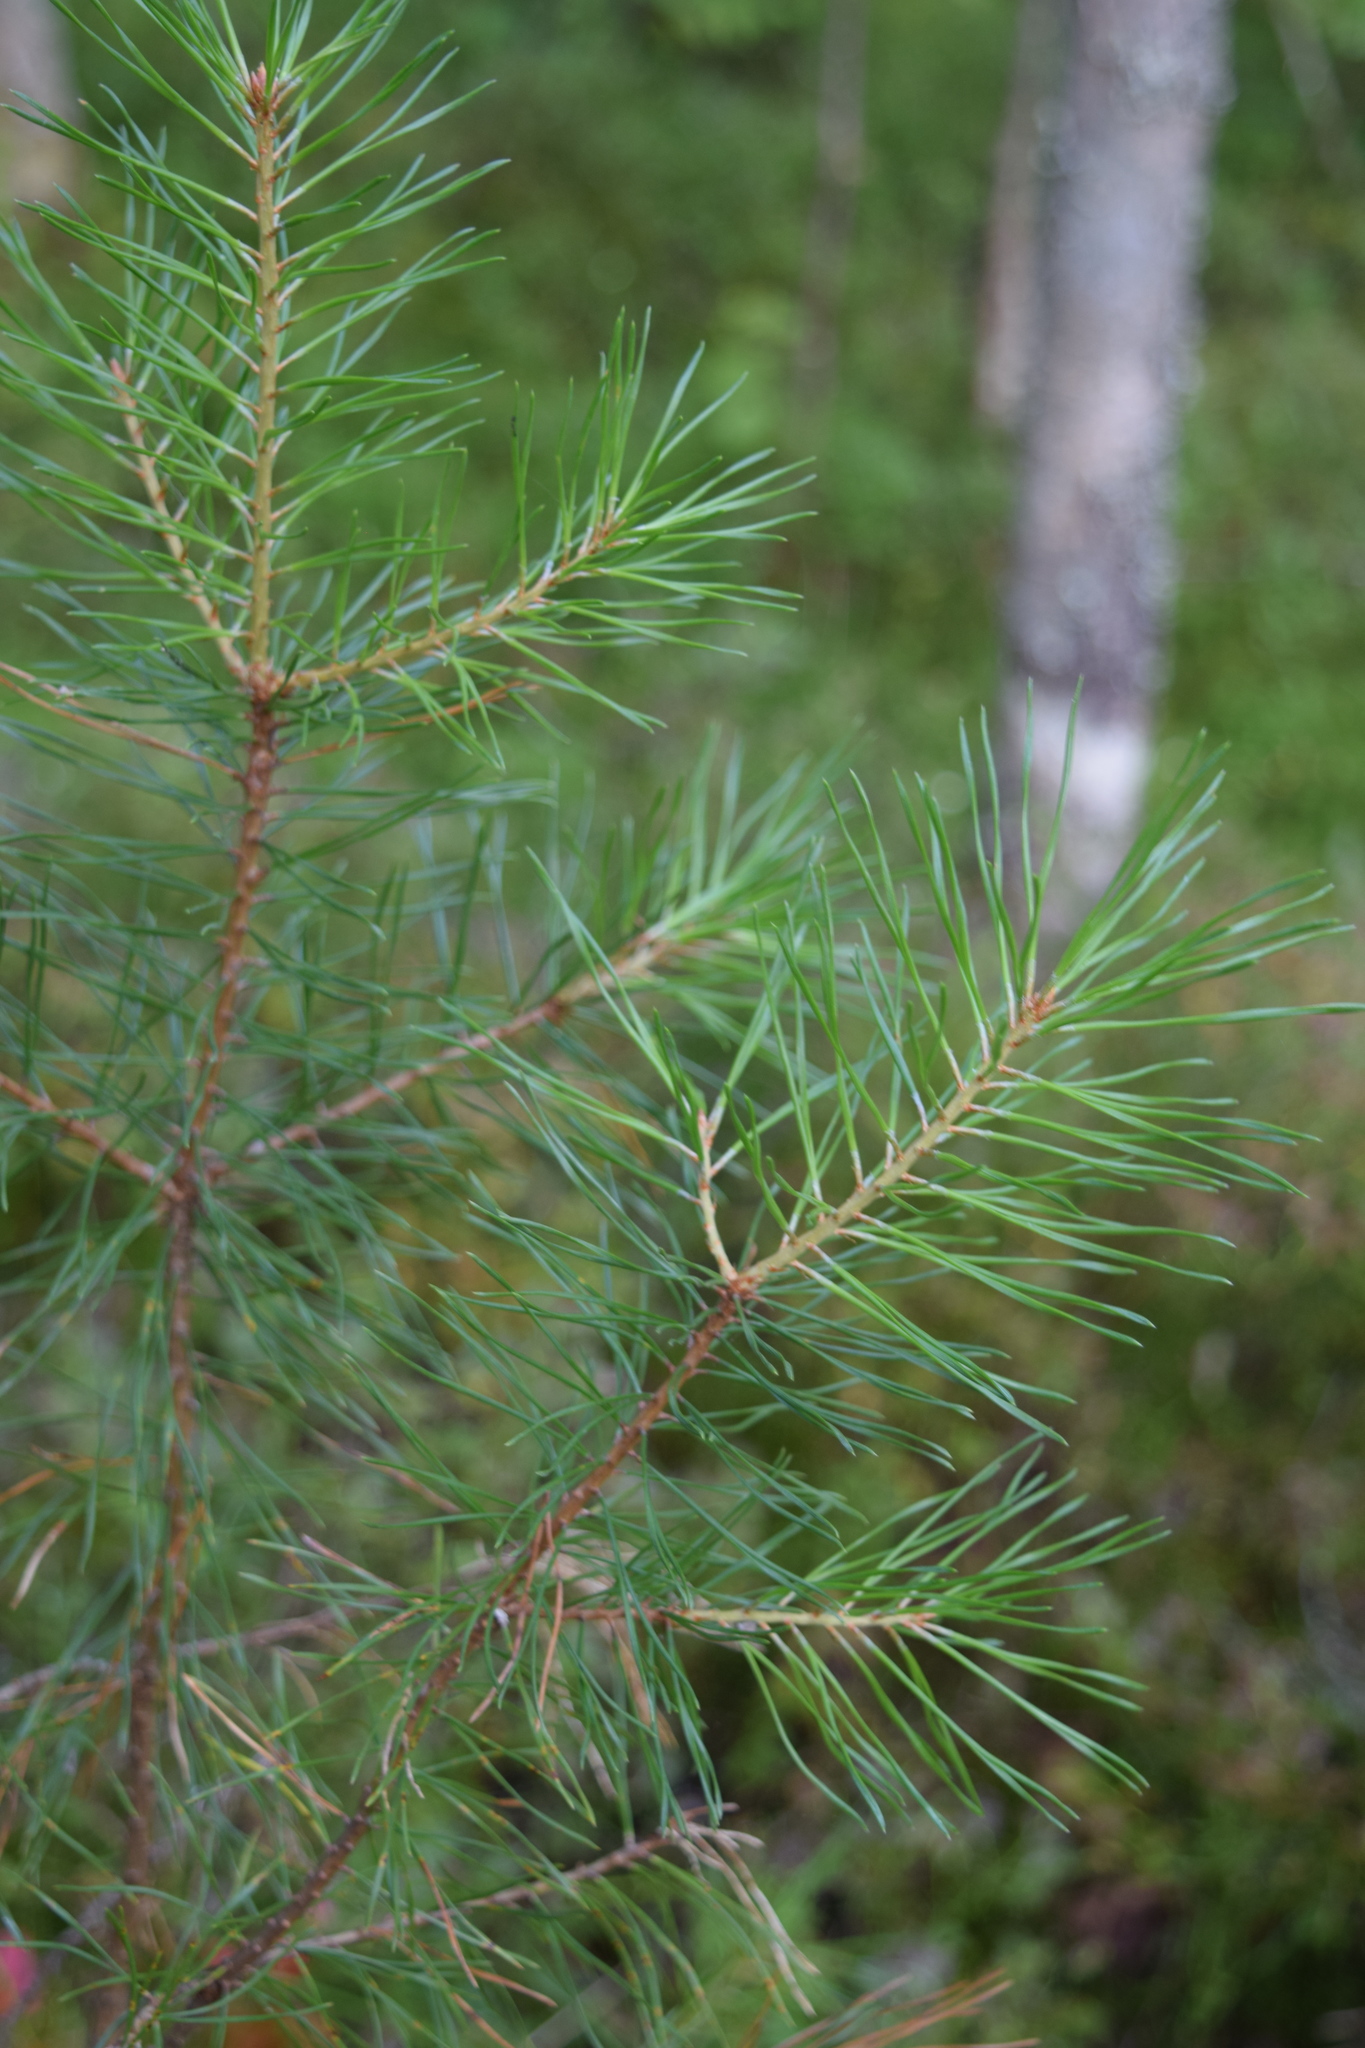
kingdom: Plantae
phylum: Tracheophyta
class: Pinopsida
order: Pinales
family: Pinaceae
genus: Pinus
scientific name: Pinus sylvestris
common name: Scots pine
